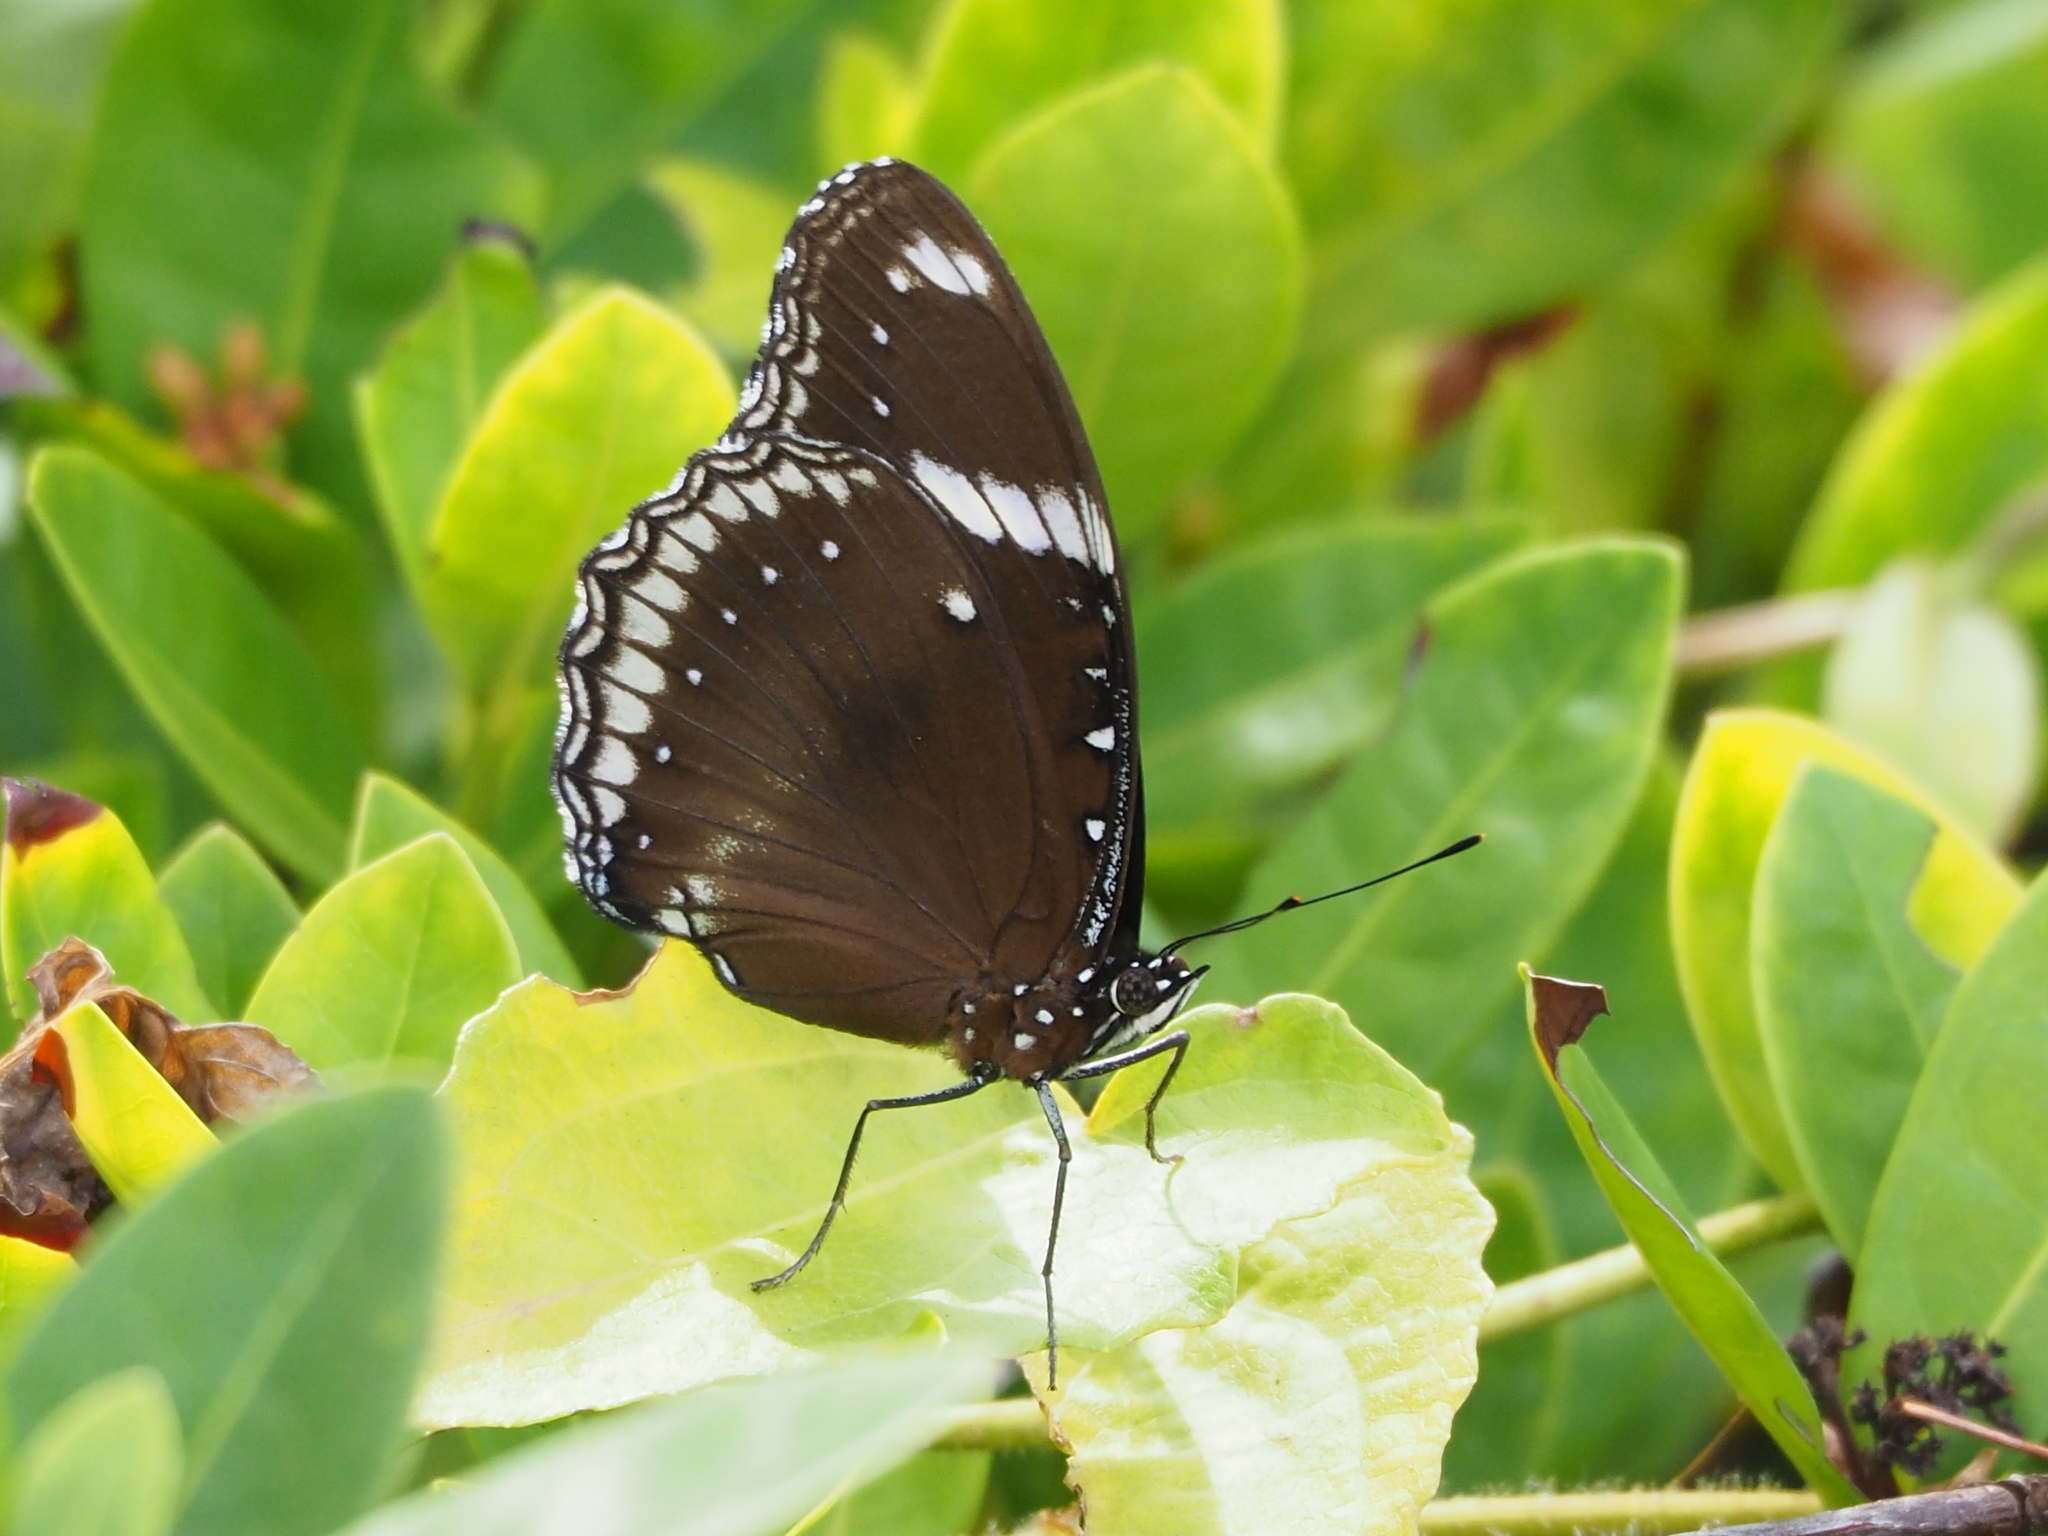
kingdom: Animalia
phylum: Arthropoda
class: Insecta
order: Lepidoptera
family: Nymphalidae
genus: Hypolimnas
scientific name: Hypolimnas bolina
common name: Great eggfly
